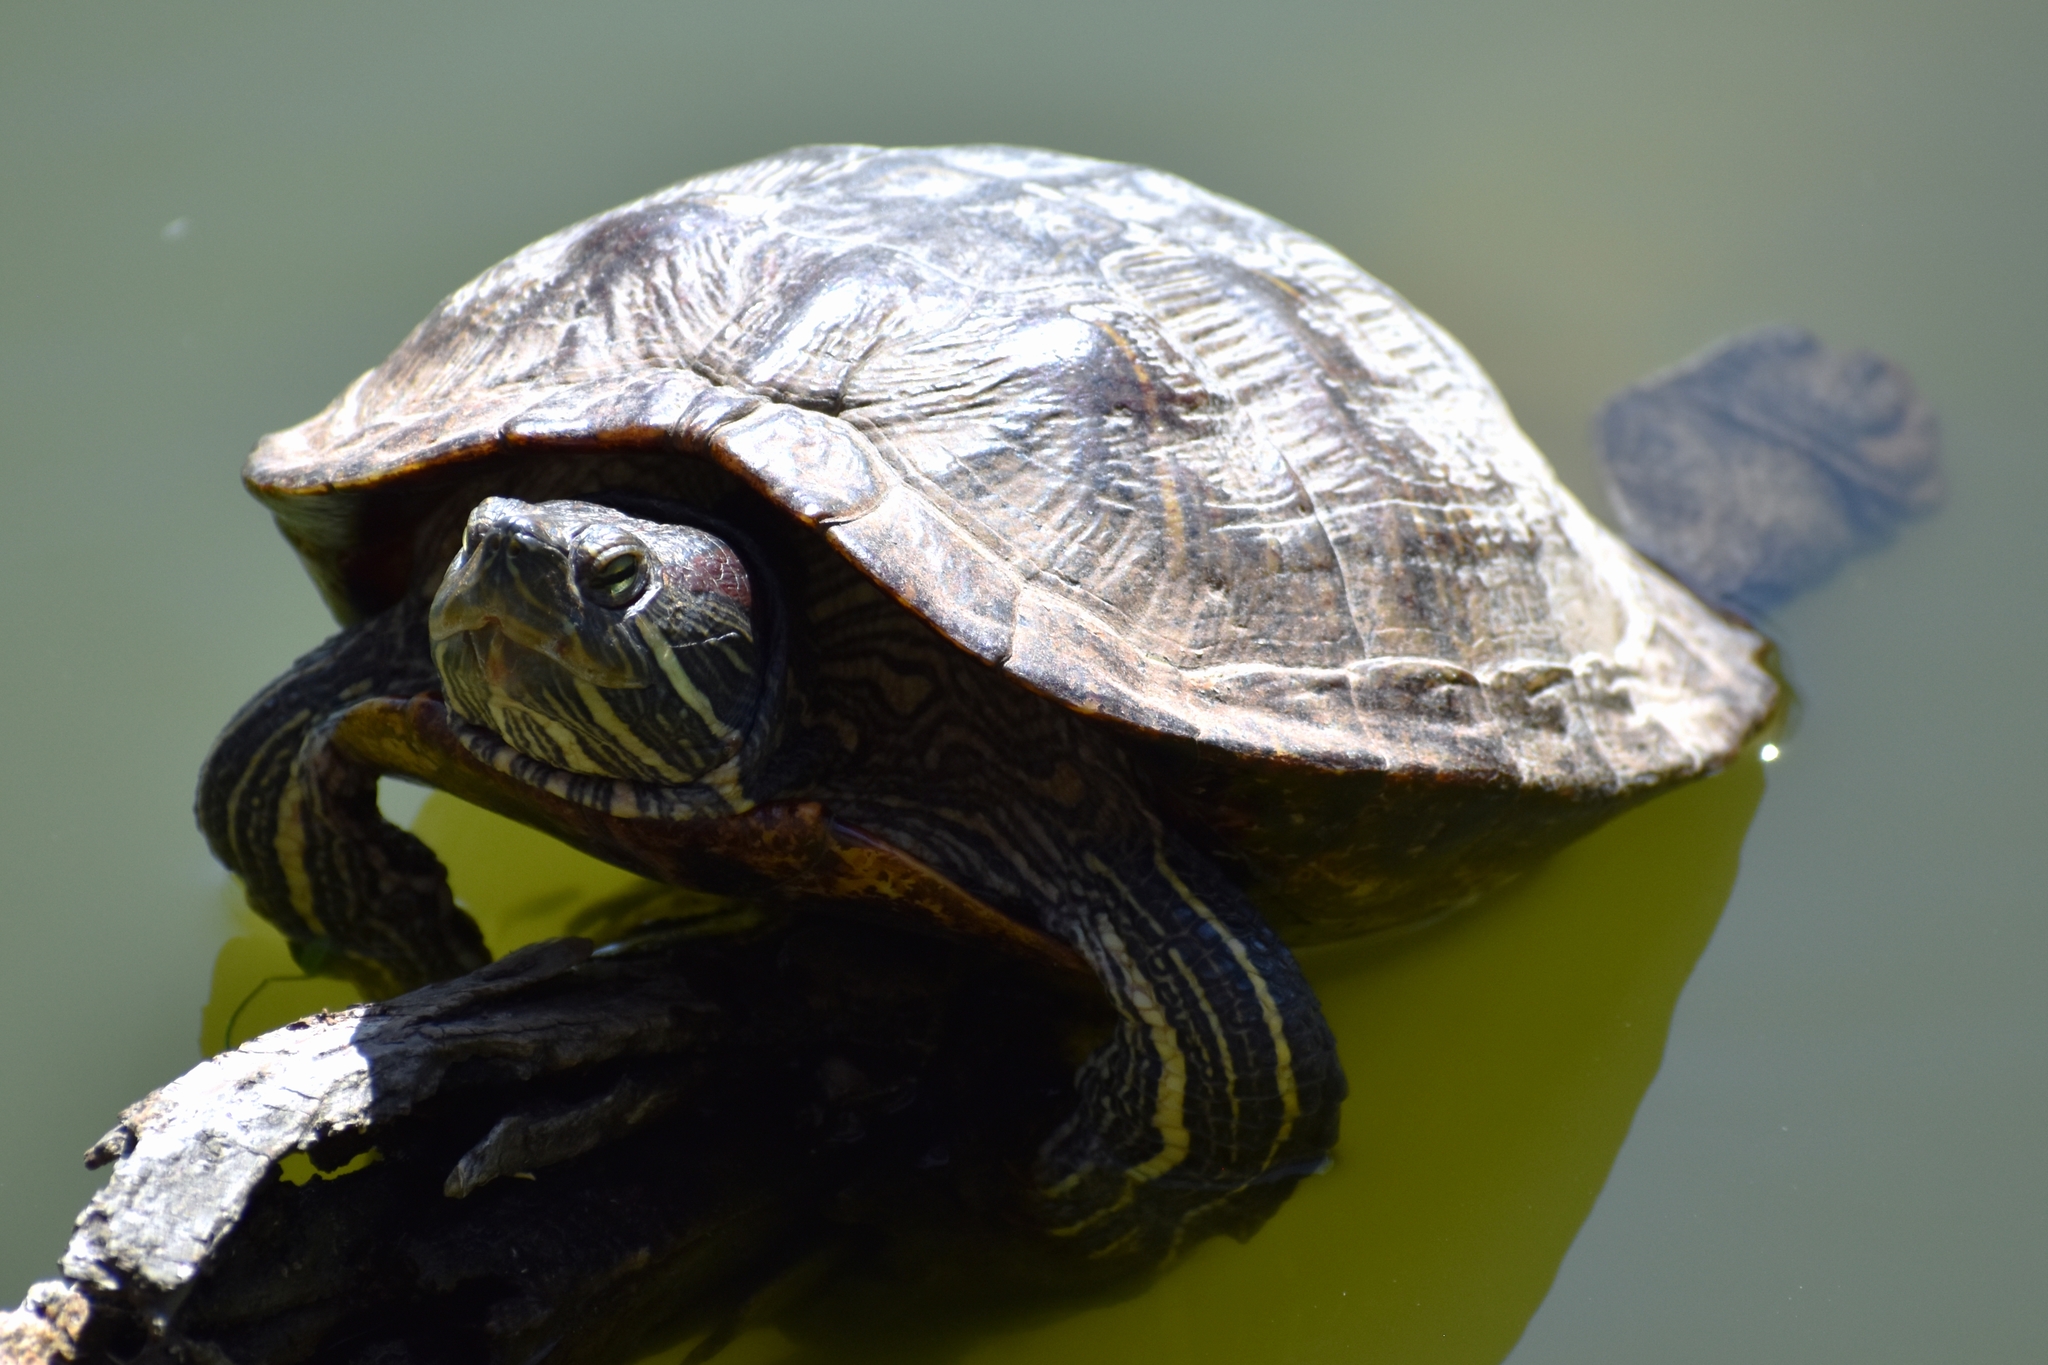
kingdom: Animalia
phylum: Chordata
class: Testudines
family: Emydidae
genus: Trachemys
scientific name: Trachemys scripta
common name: Slider
